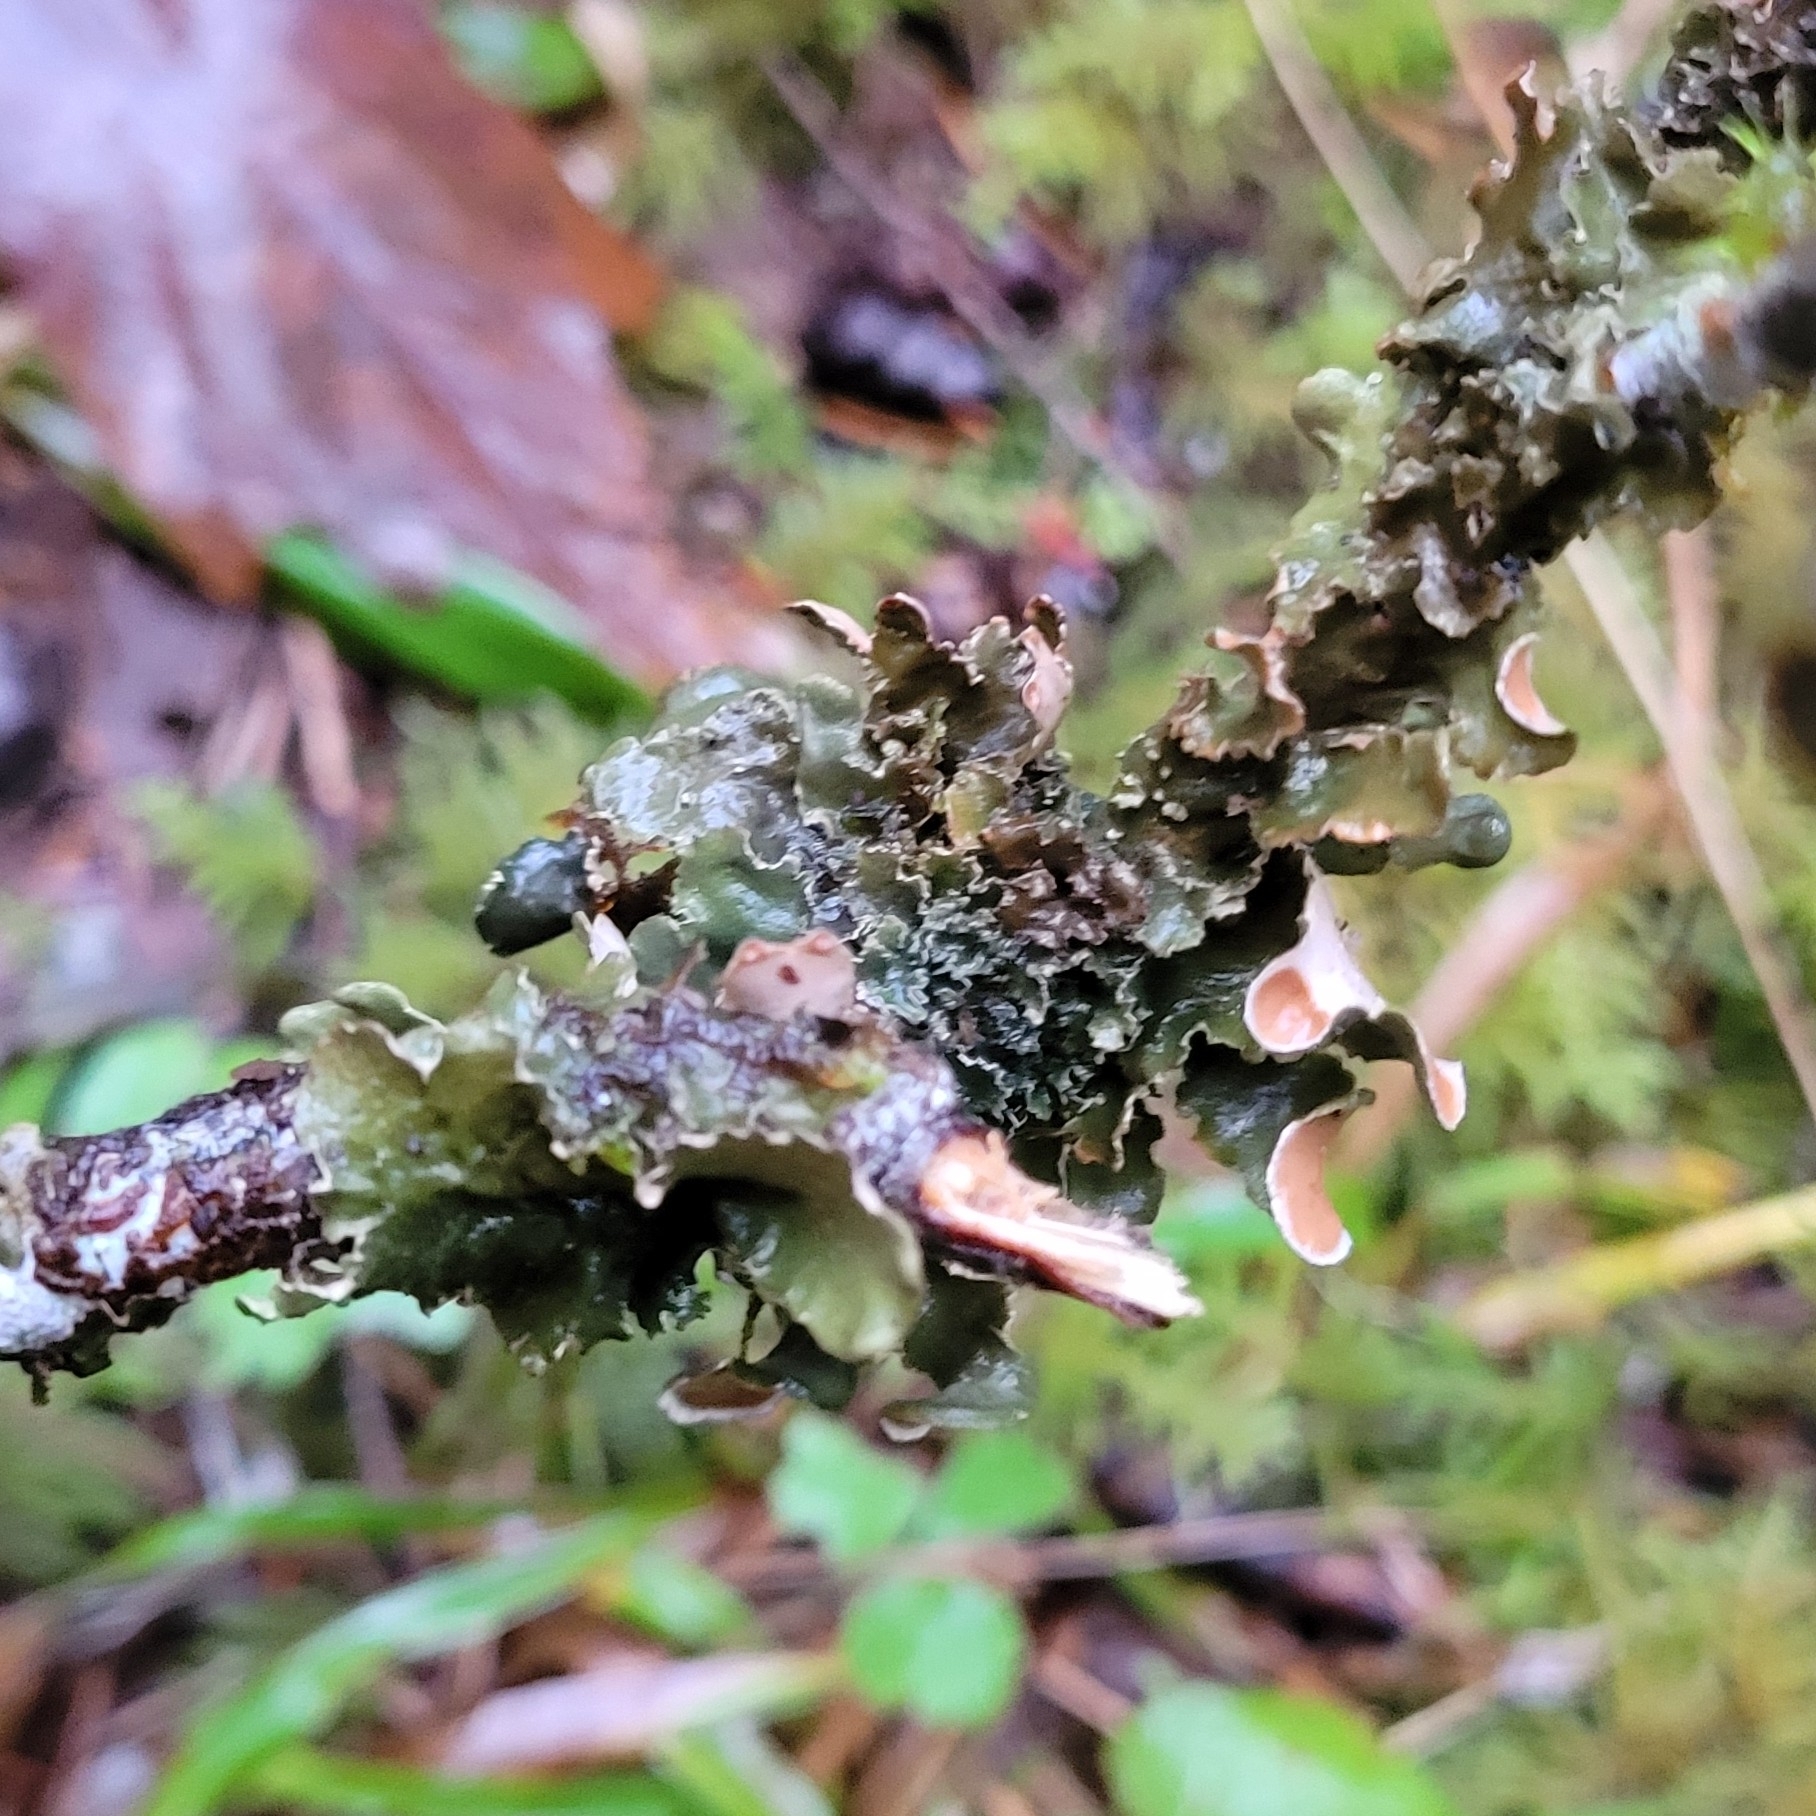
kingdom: Fungi
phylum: Ascomycota
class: Lecanoromycetes
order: Peltigerales
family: Nephromataceae
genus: Nephroma
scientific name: Nephroma resupinatum
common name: Pimpled kidney lichen
